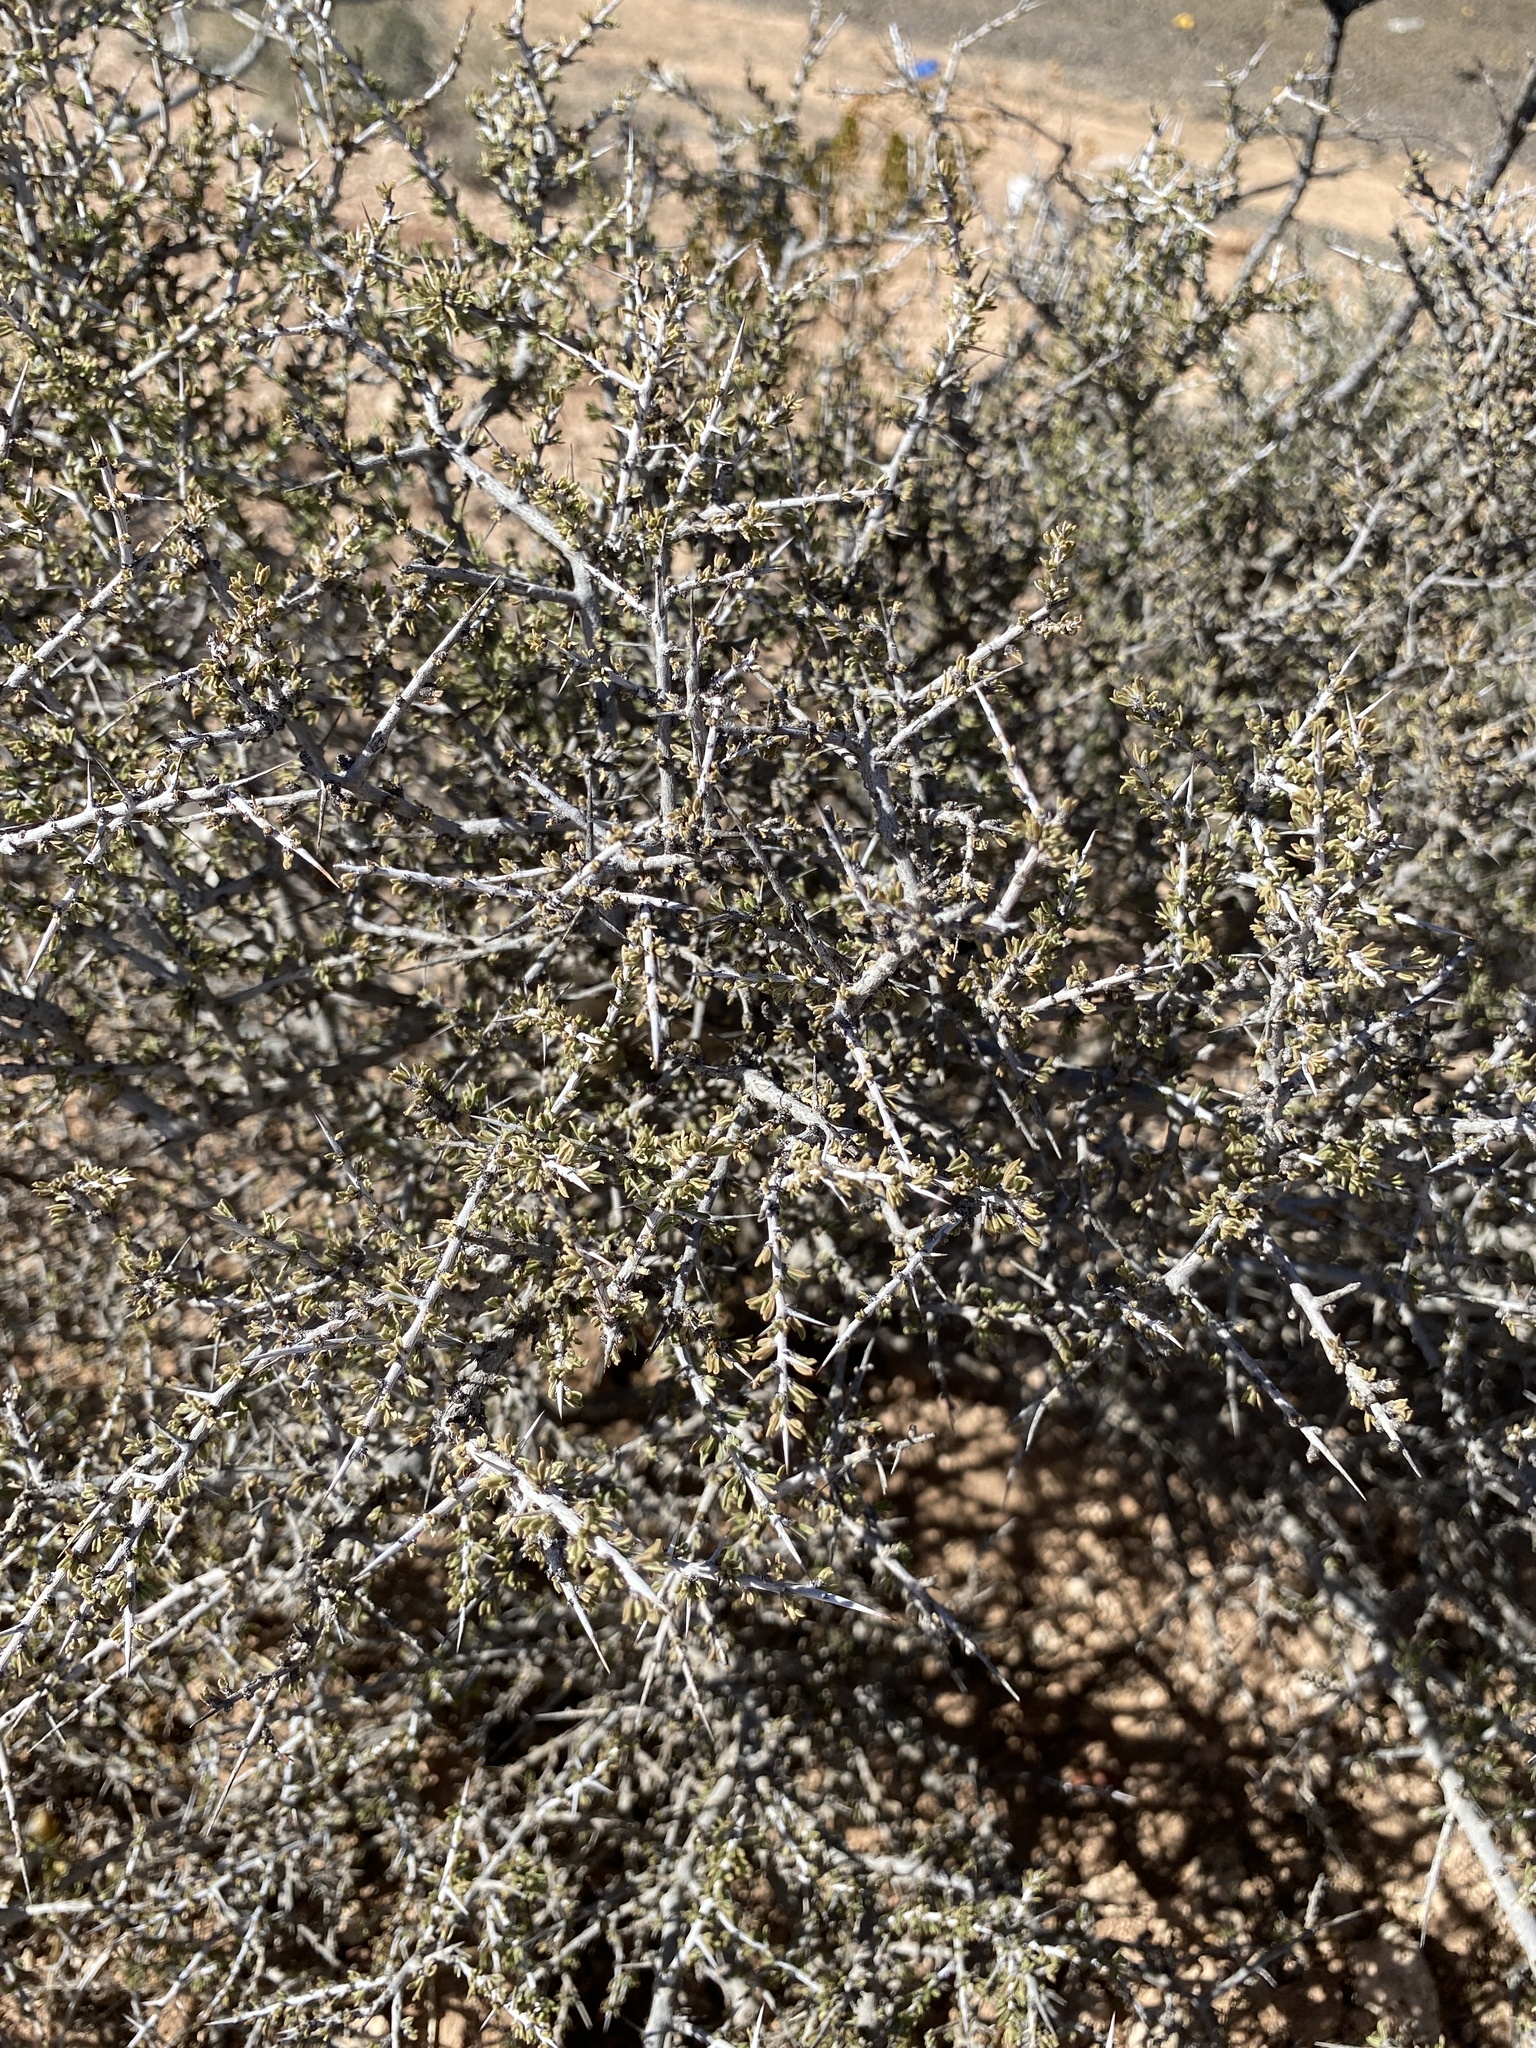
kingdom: Plantae
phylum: Tracheophyta
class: Magnoliopsida
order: Rosales
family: Rhamnaceae
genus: Condalia
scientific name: Condalia ericoides
